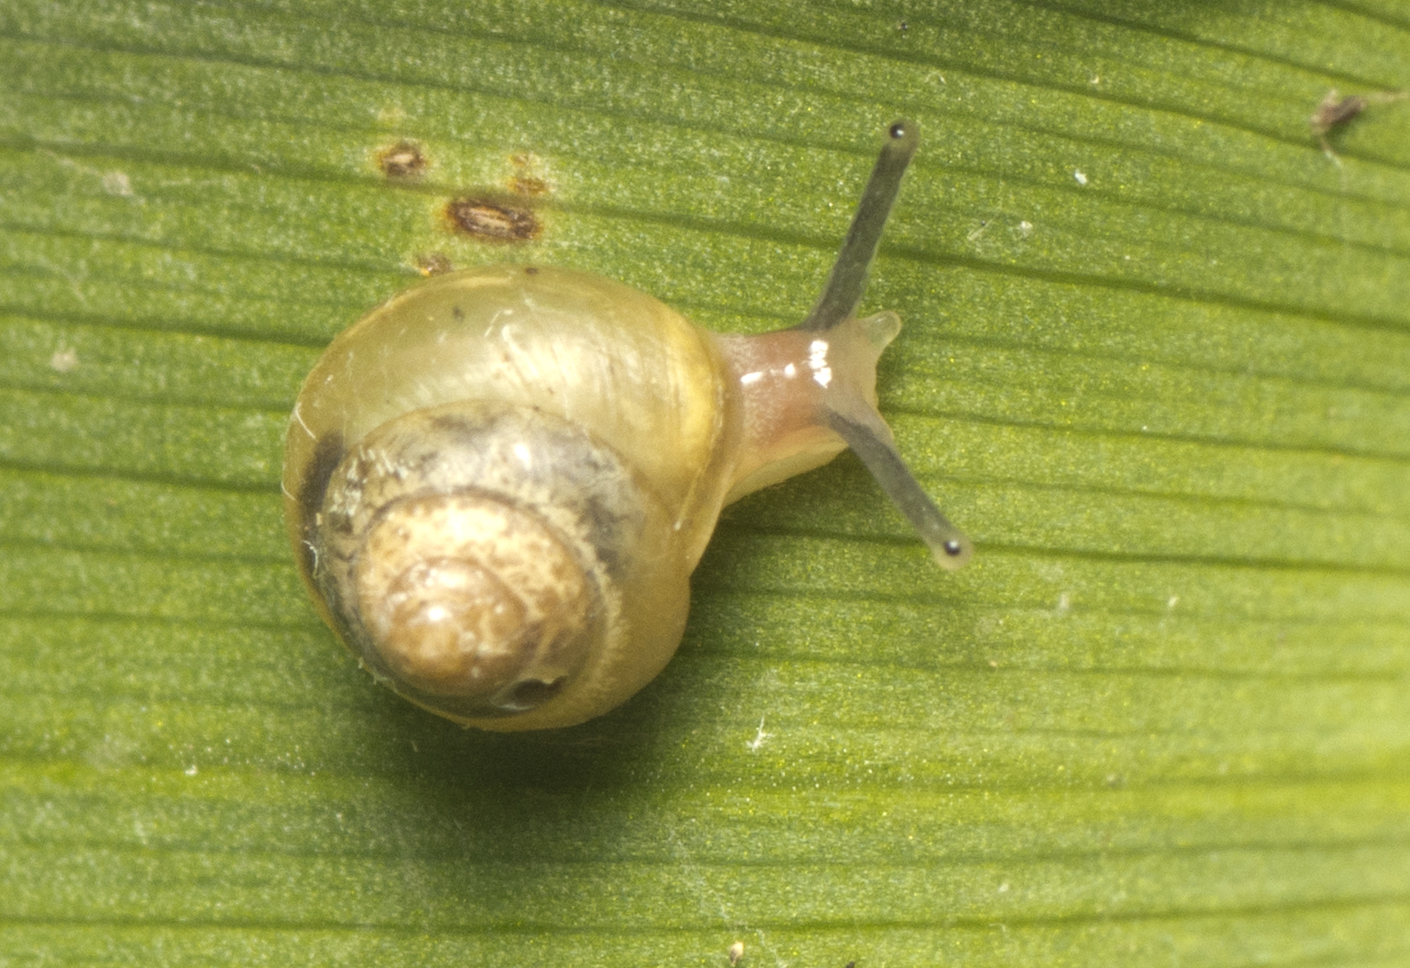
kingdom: Animalia
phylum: Mollusca
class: Gastropoda
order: Stylommatophora
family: Euconulidae
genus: Coneuplecta
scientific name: Coneuplecta calculosa
